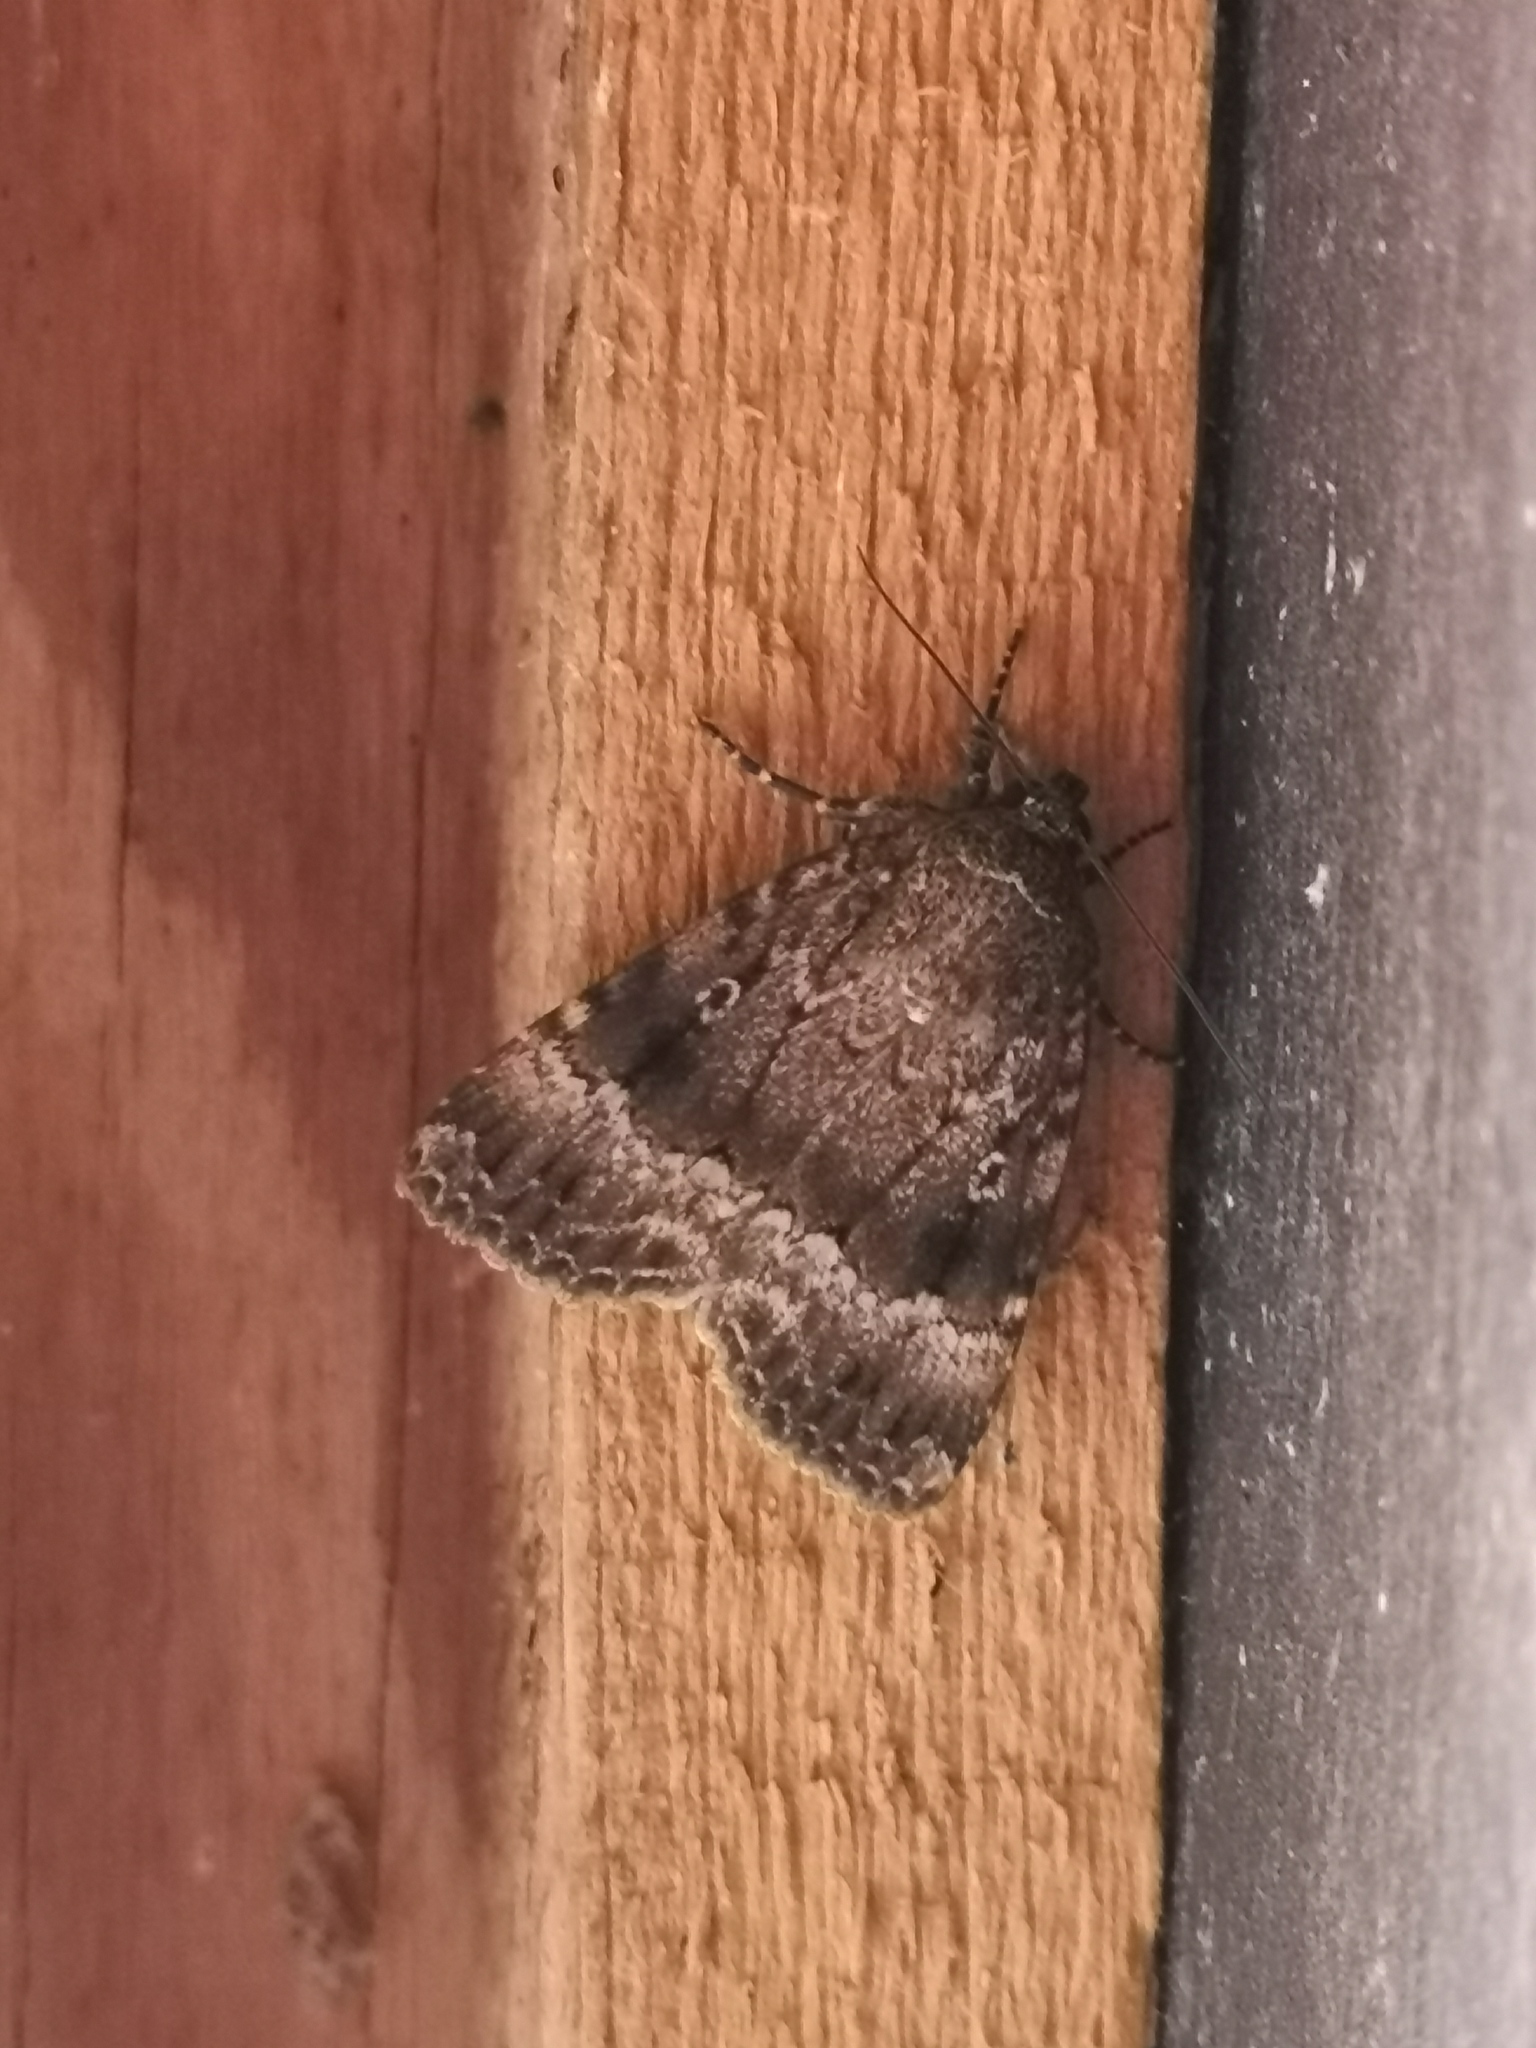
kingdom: Animalia
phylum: Arthropoda
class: Insecta
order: Lepidoptera
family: Noctuidae
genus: Amphipyra
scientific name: Amphipyra pyramidea
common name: Copper underwing
